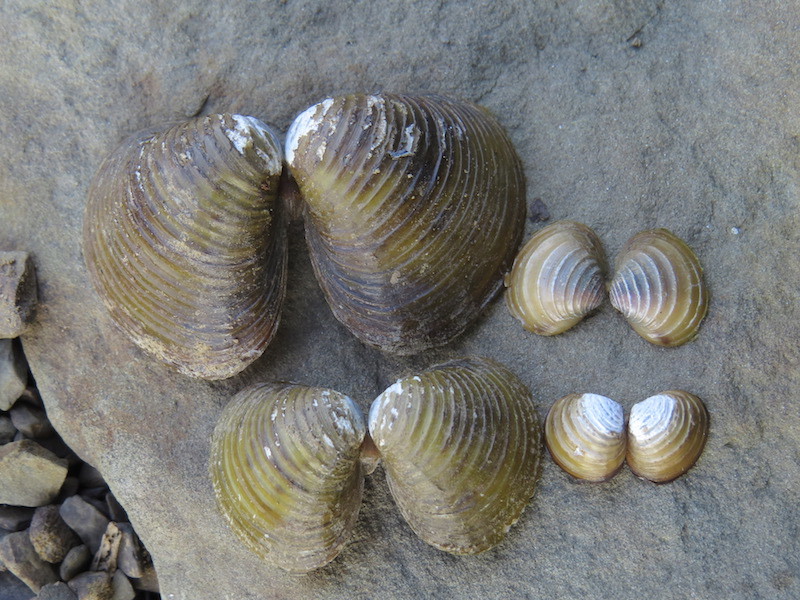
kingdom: Animalia
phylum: Mollusca
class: Bivalvia
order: Venerida
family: Cyrenidae
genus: Corbicula
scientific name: Corbicula fluminea
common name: Asian clam
